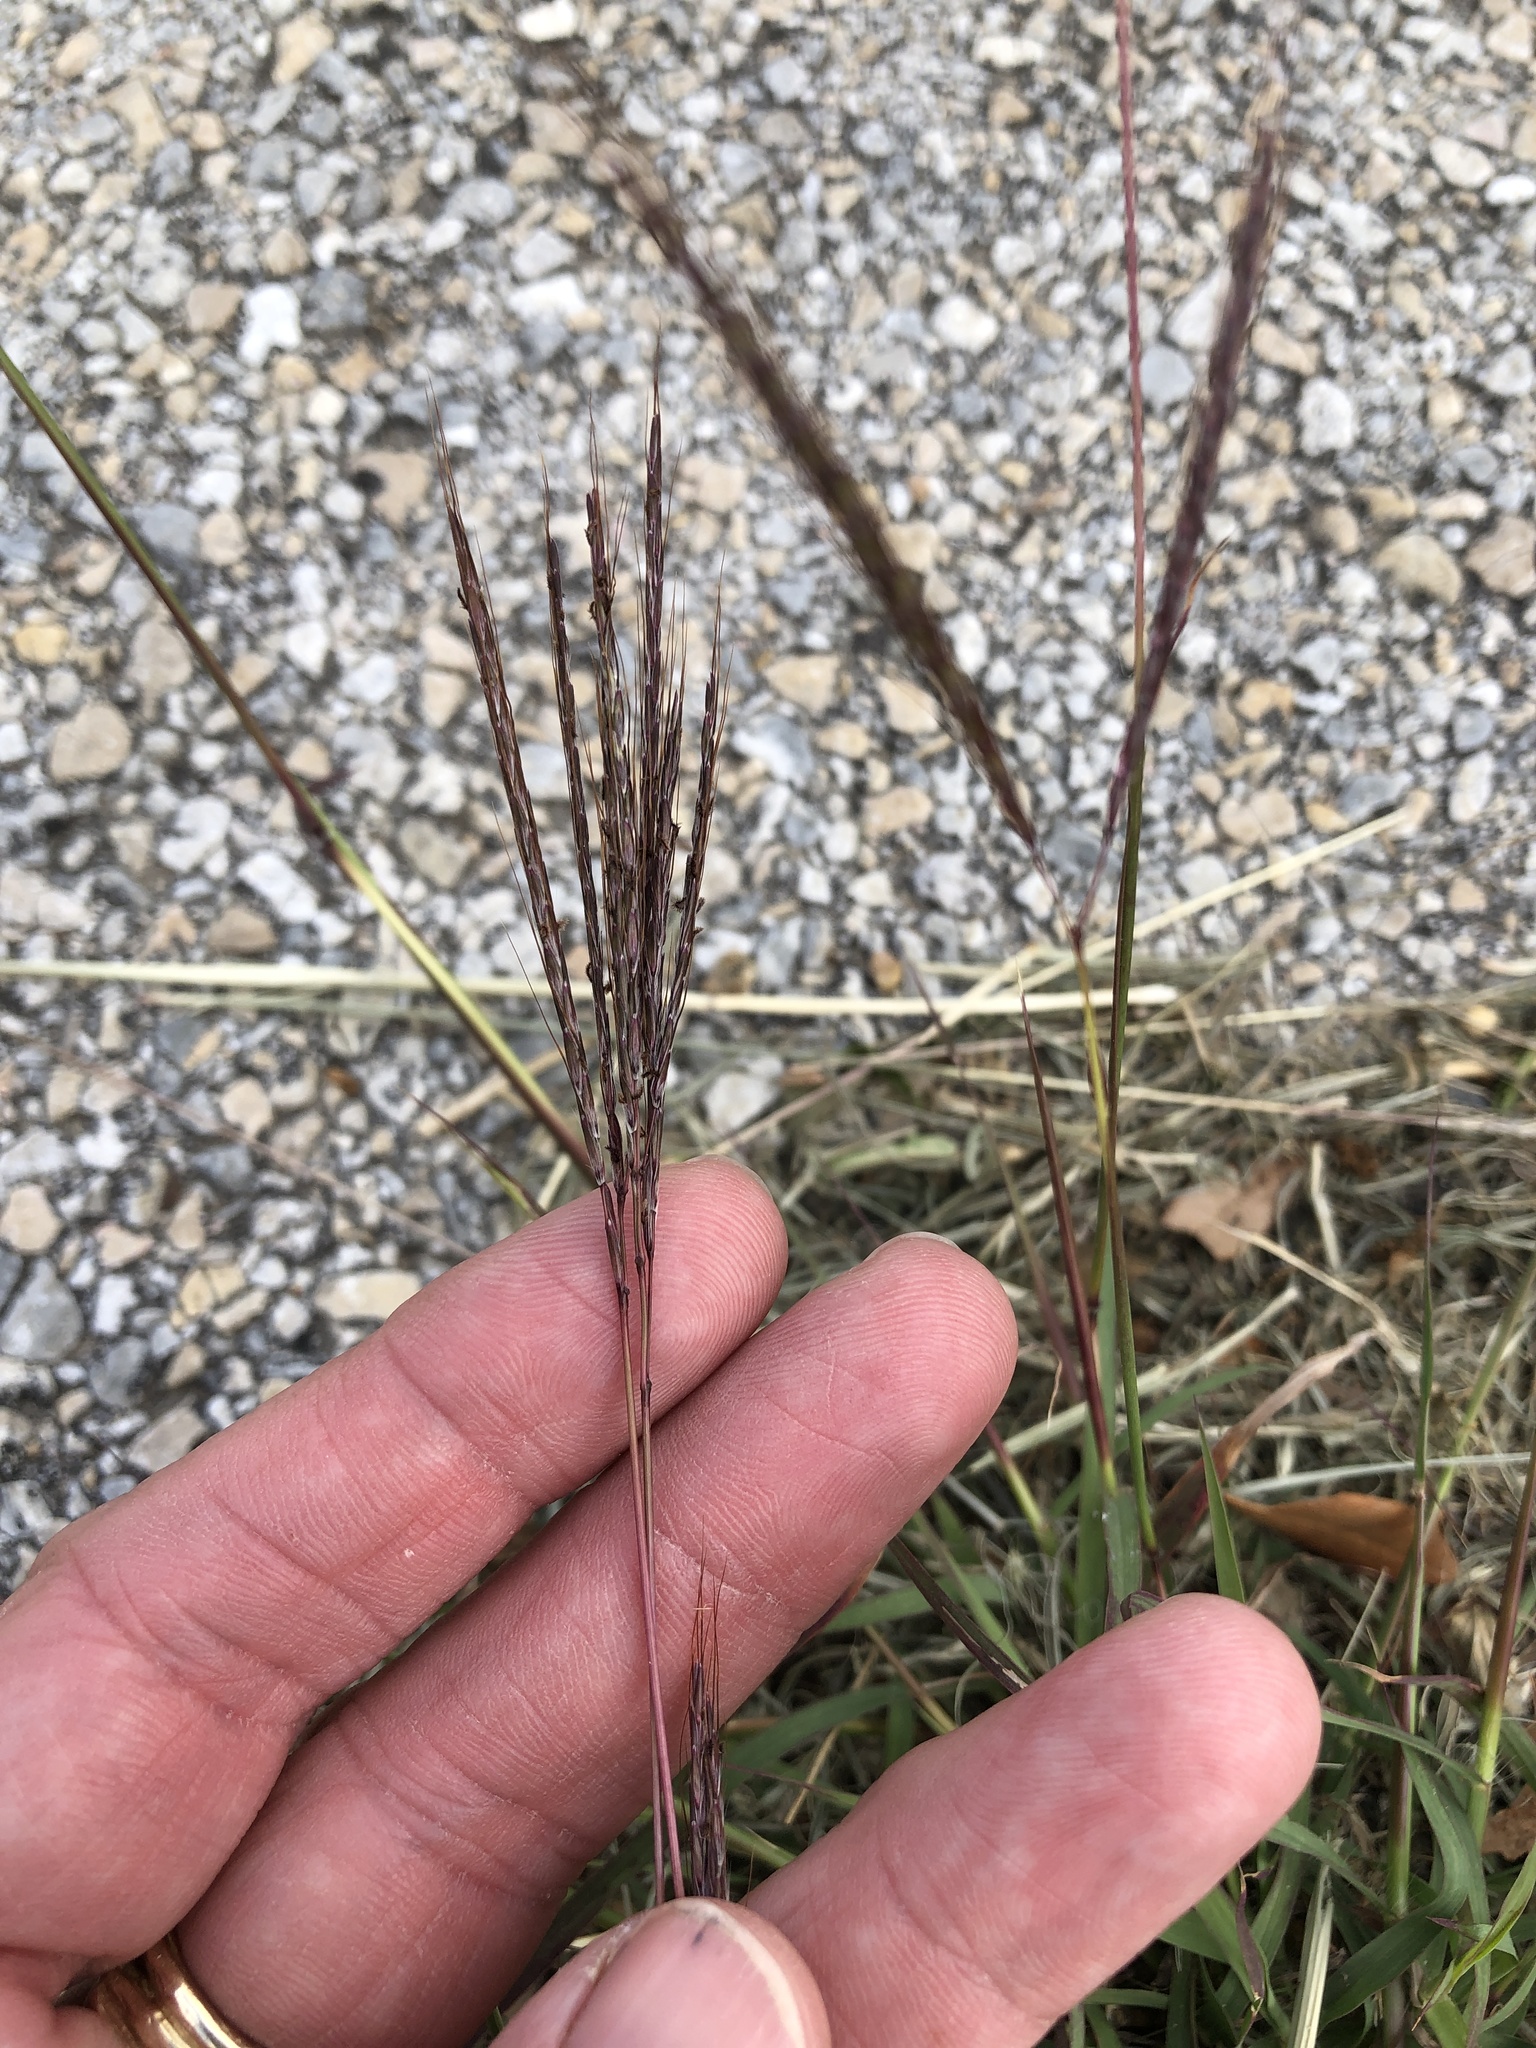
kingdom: Plantae
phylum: Tracheophyta
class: Liliopsida
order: Poales
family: Poaceae
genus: Bothriochloa
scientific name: Bothriochloa ischaemum
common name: Yellow bluestem
